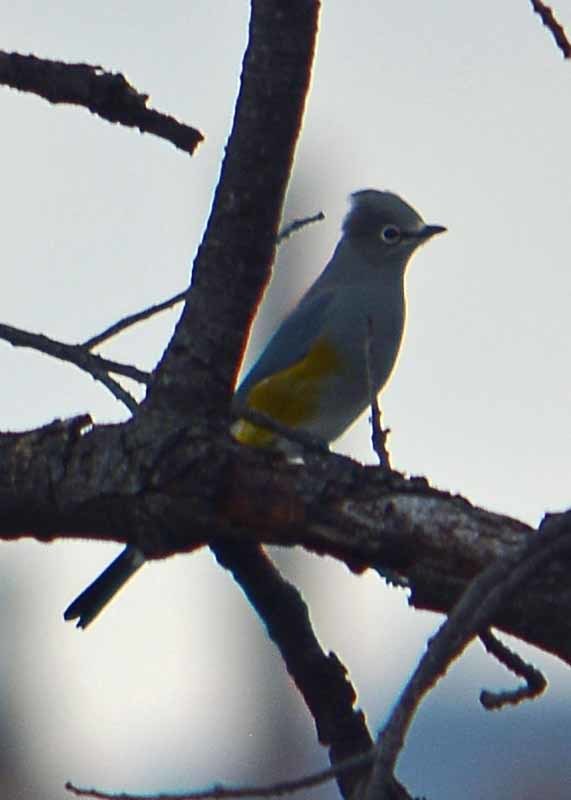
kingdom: Animalia
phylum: Chordata
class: Aves
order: Passeriformes
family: Ptilogonatidae
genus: Ptilogonys
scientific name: Ptilogonys cinereus
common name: Gray silky-flycatcher
